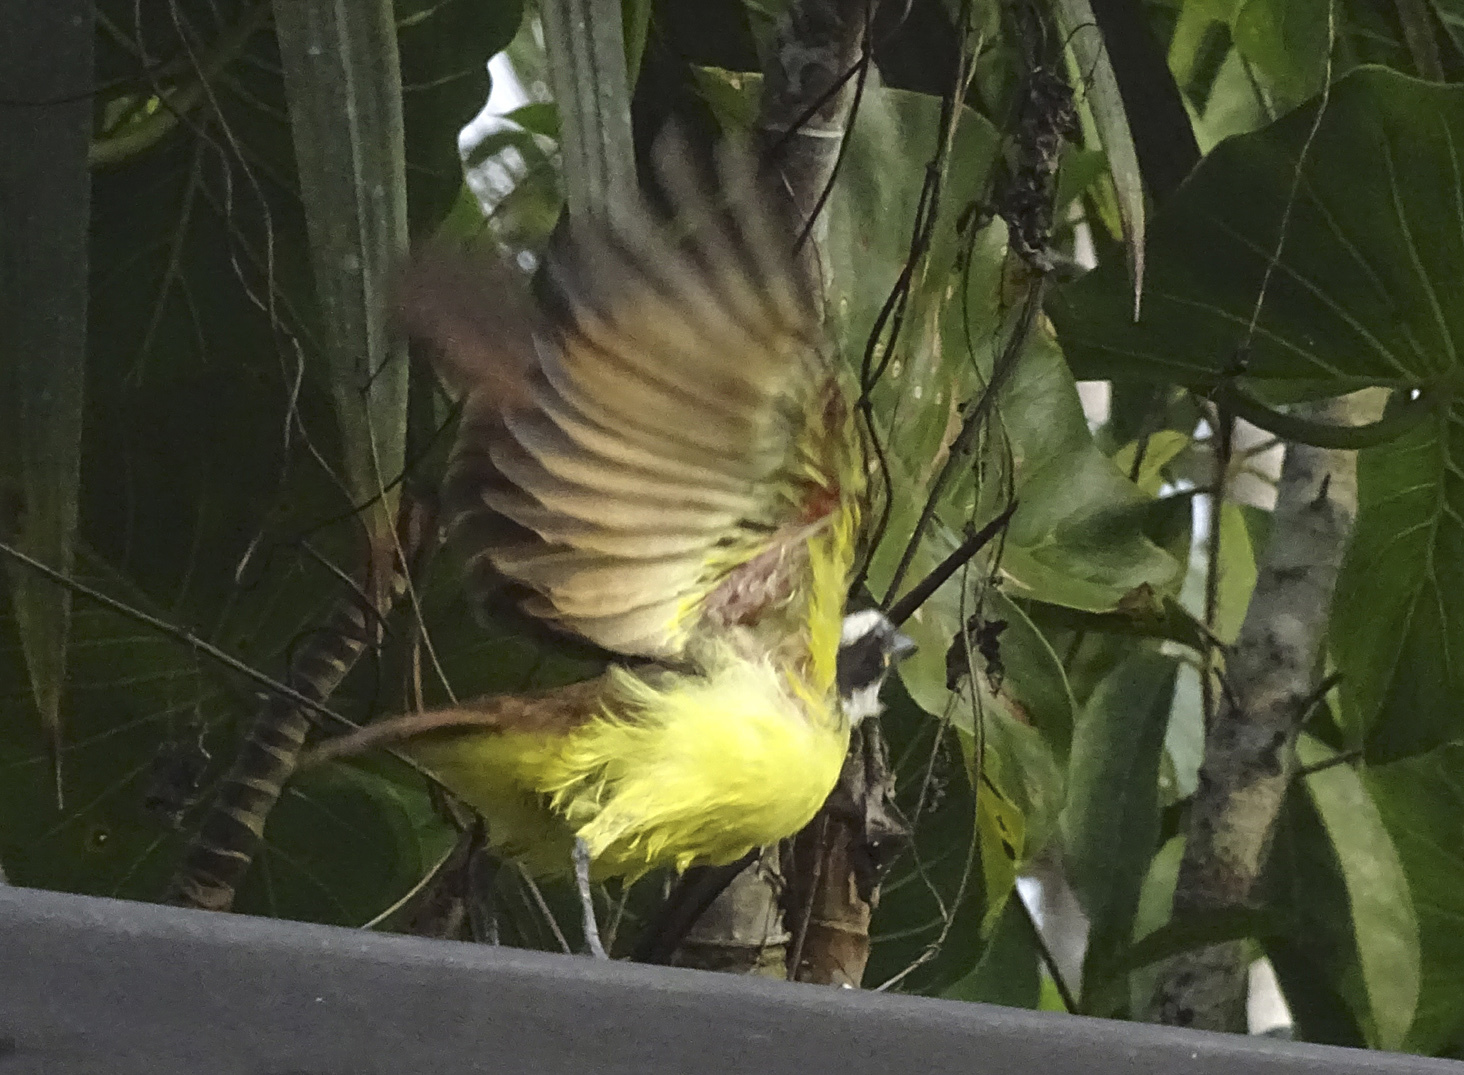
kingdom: Animalia
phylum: Chordata
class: Aves
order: Passeriformes
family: Tyrannidae
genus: Pitangus
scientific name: Pitangus sulphuratus
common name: Great kiskadee
